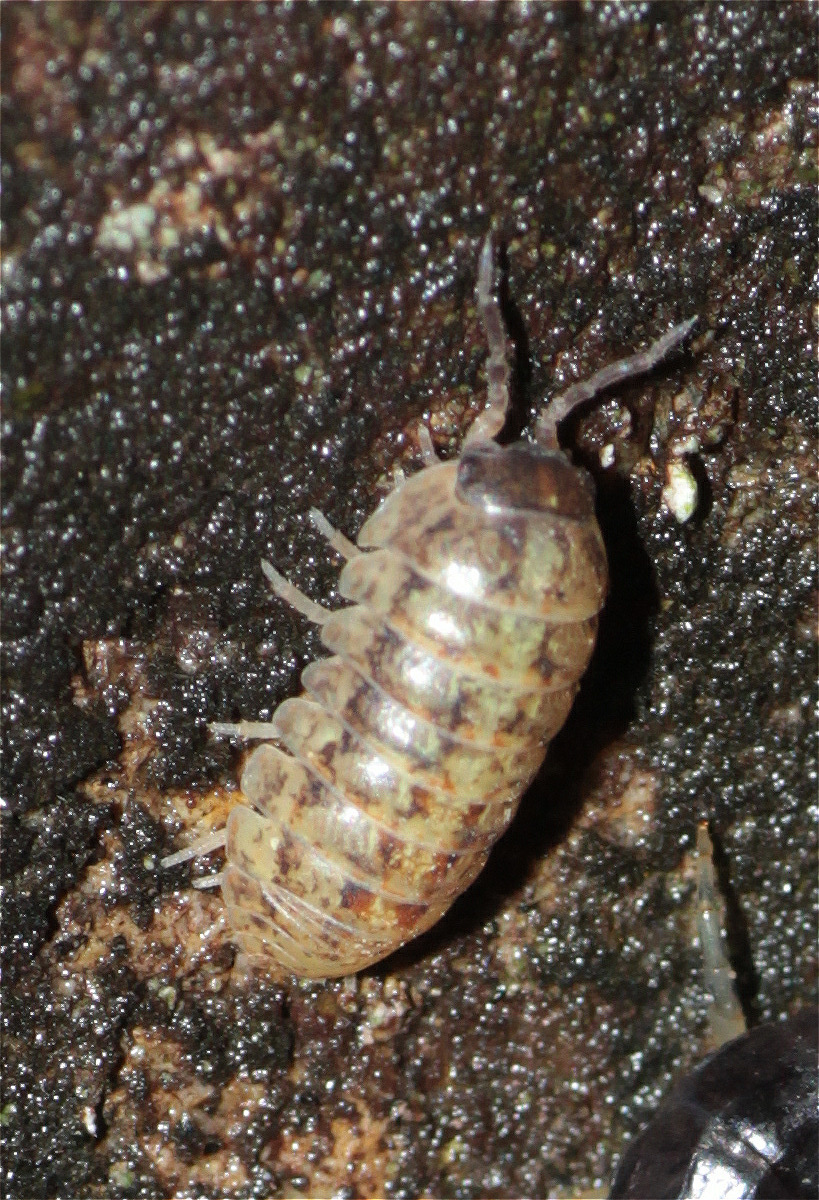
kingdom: Animalia
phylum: Arthropoda
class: Malacostraca
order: Isopoda
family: Armadillidiidae
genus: Armadillidium
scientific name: Armadillidium vulgare
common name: Common pill woodlouse
